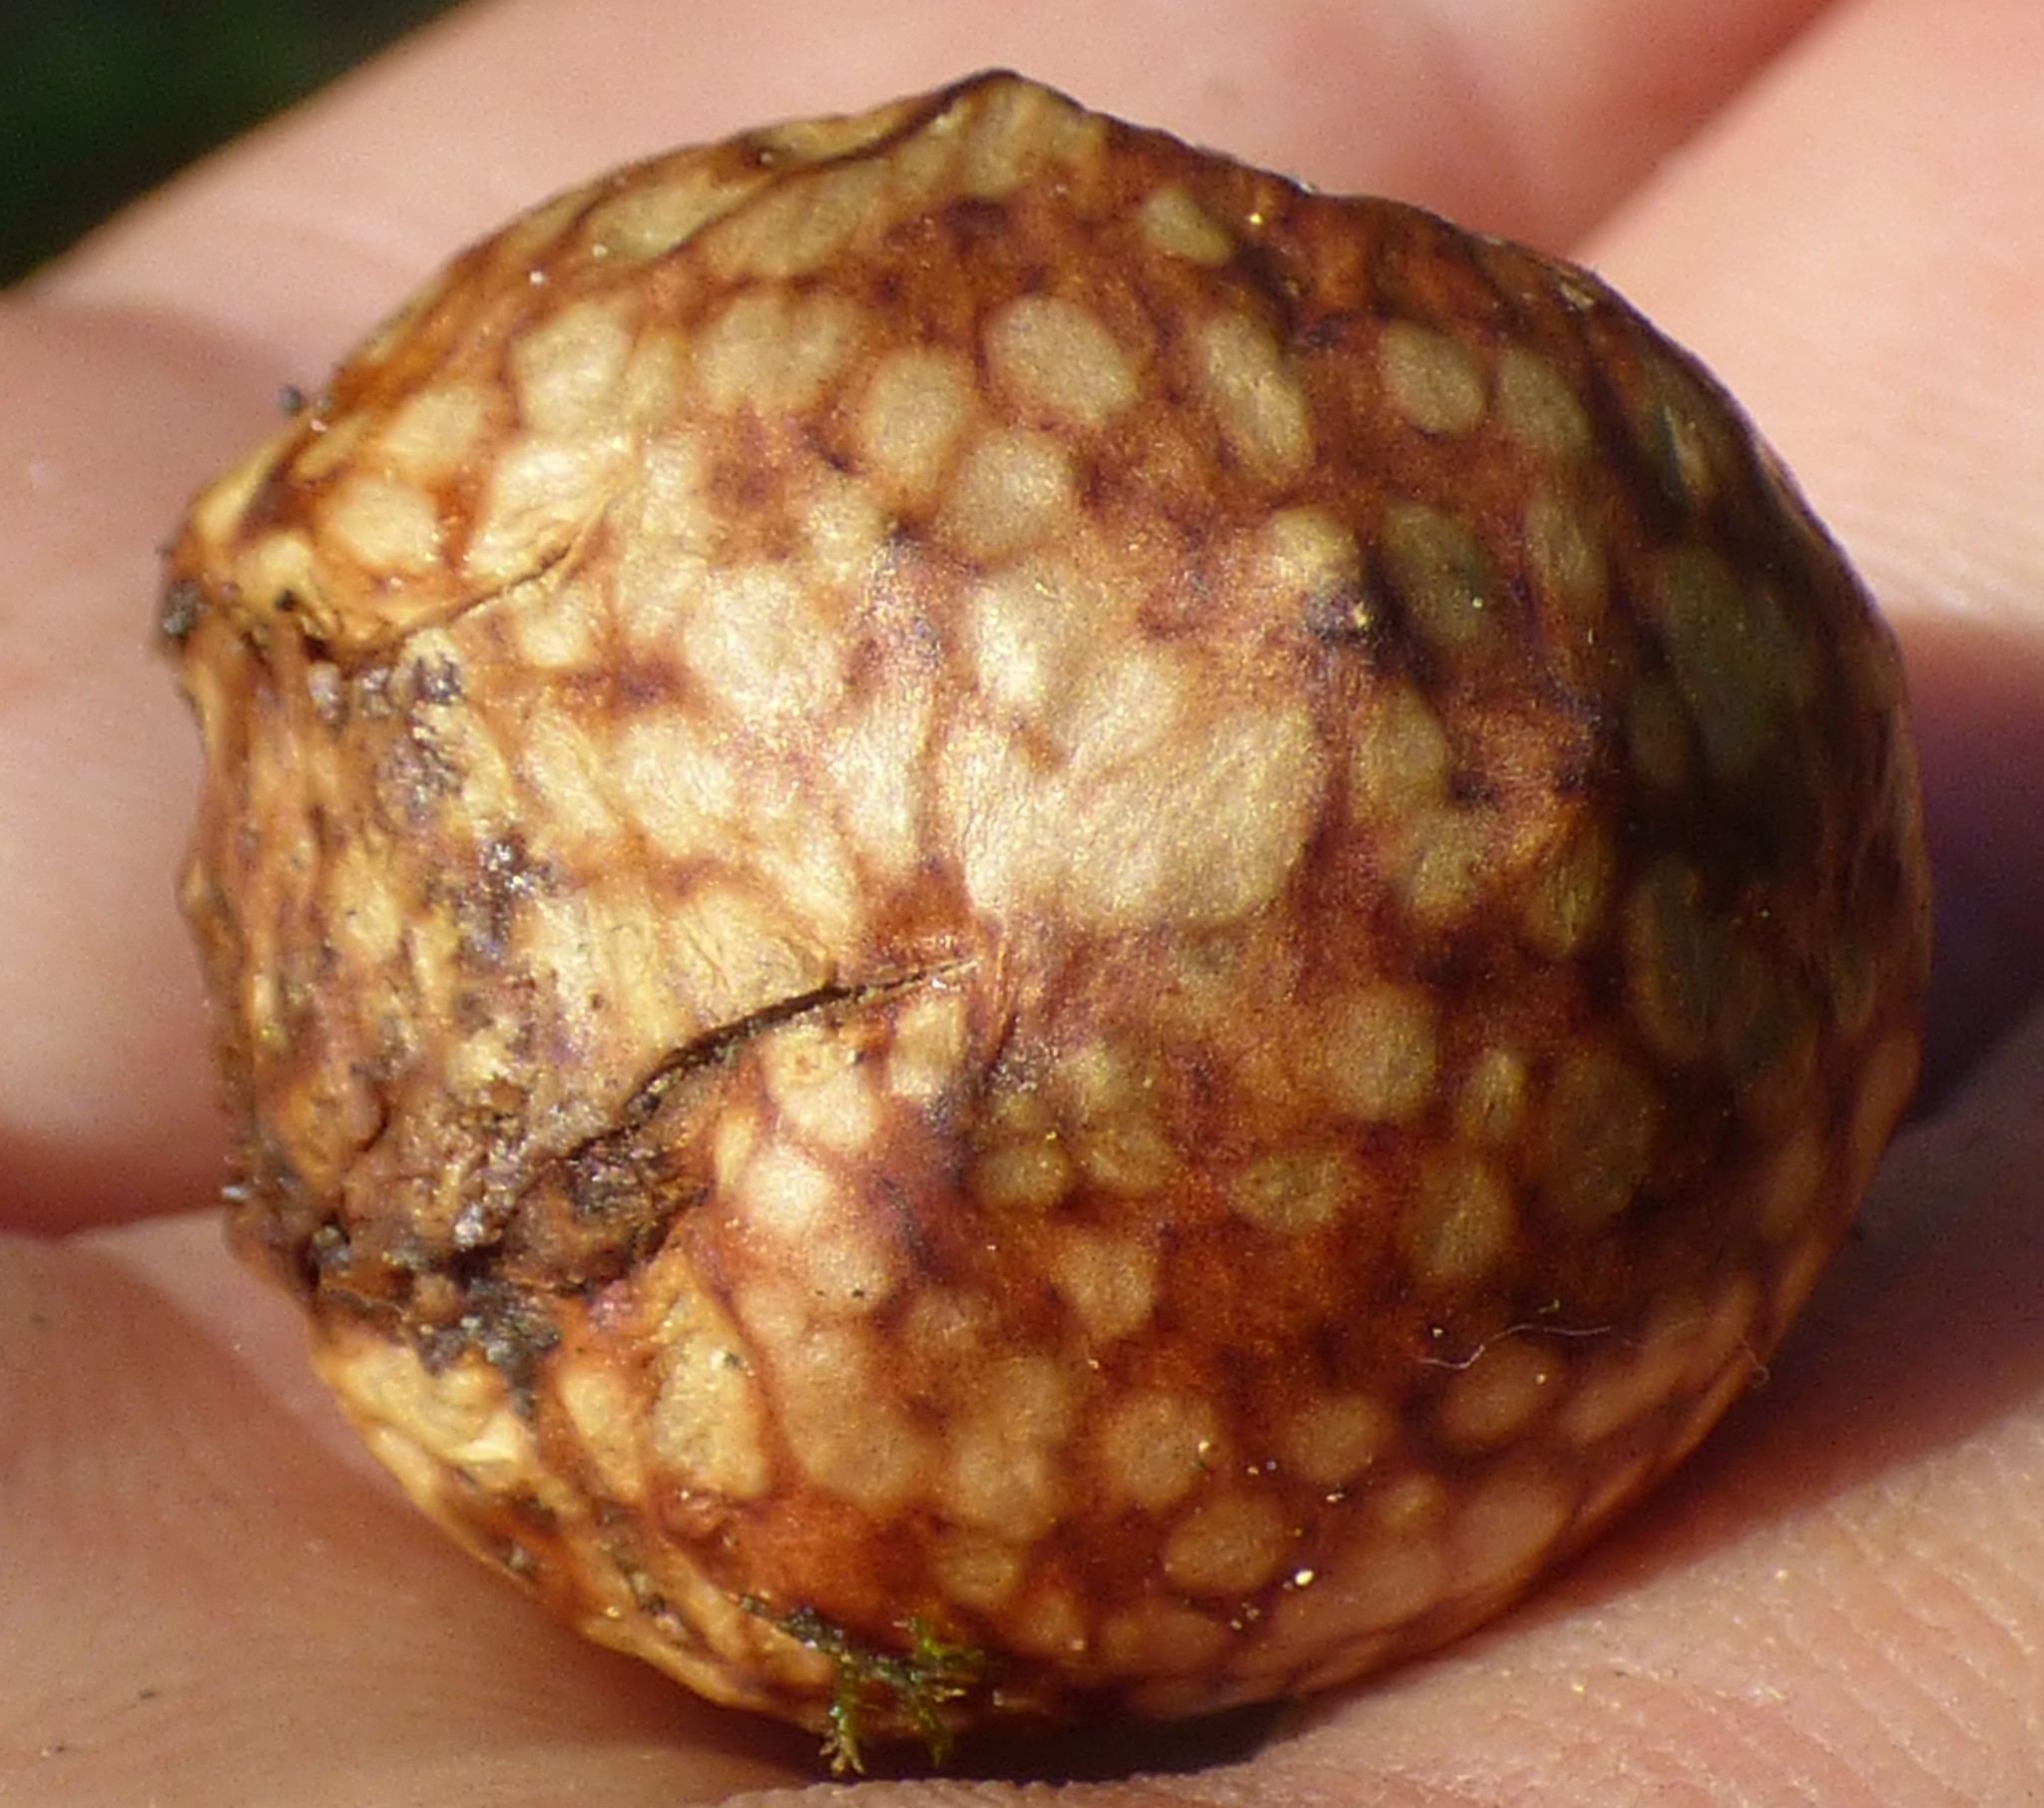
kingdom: Animalia
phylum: Arthropoda
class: Insecta
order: Hymenoptera
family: Cynipidae
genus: Amphibolips
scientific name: Amphibolips
